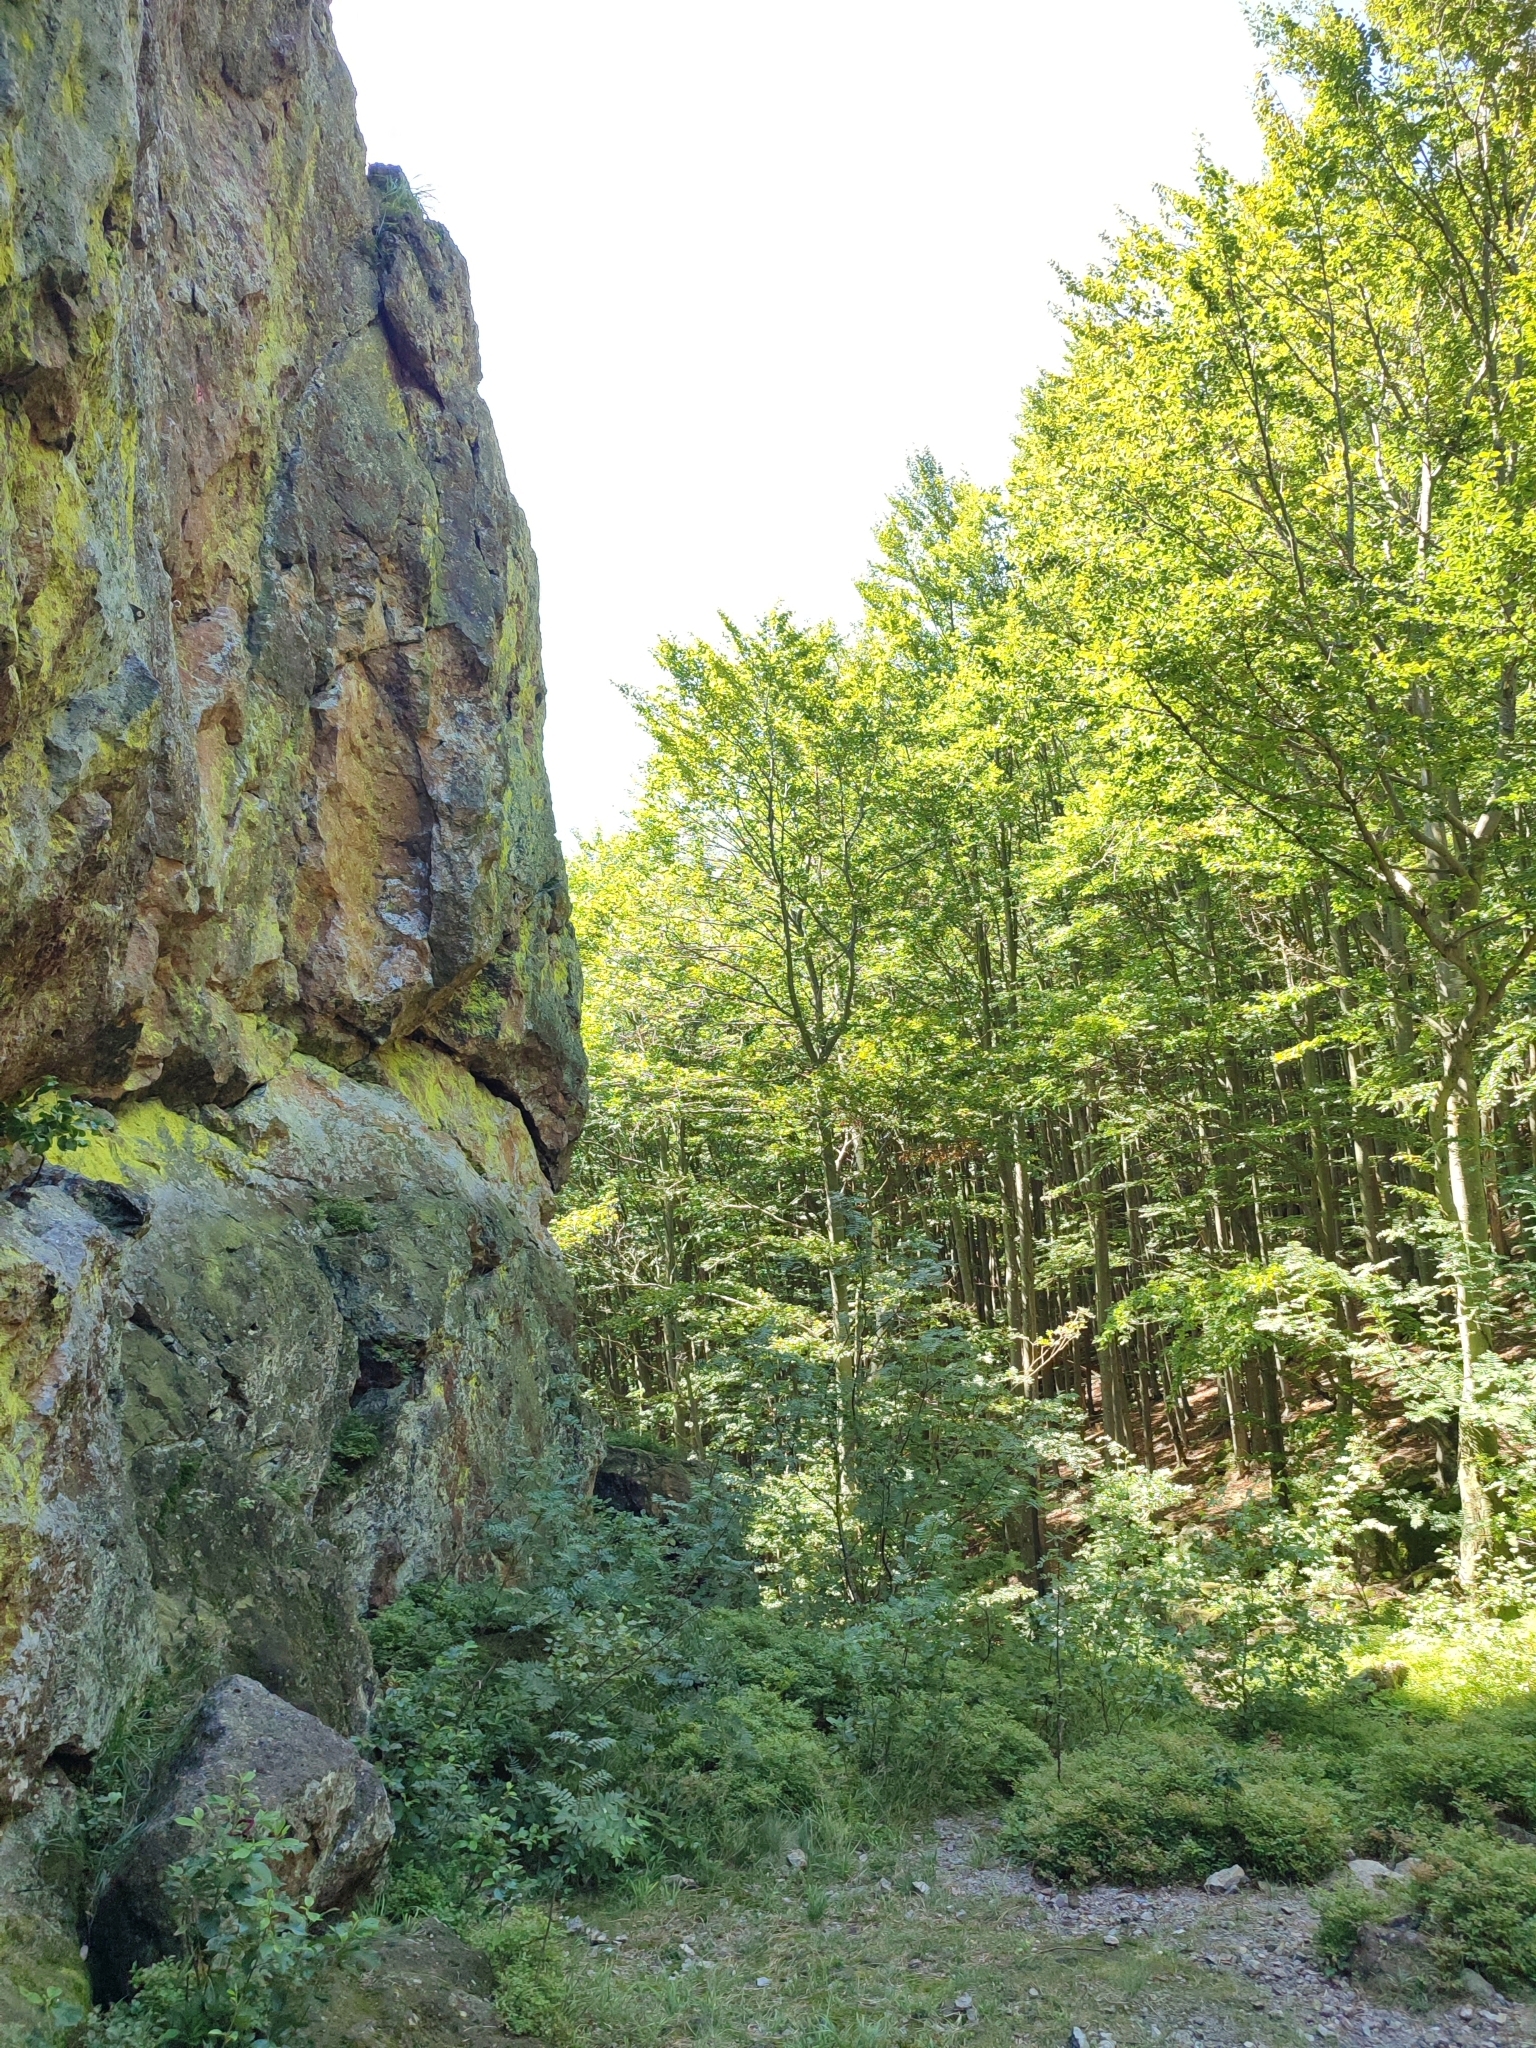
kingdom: Plantae
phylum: Tracheophyta
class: Magnoliopsida
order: Fagales
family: Fagaceae
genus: Fagus
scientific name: Fagus sylvatica
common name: Beech
